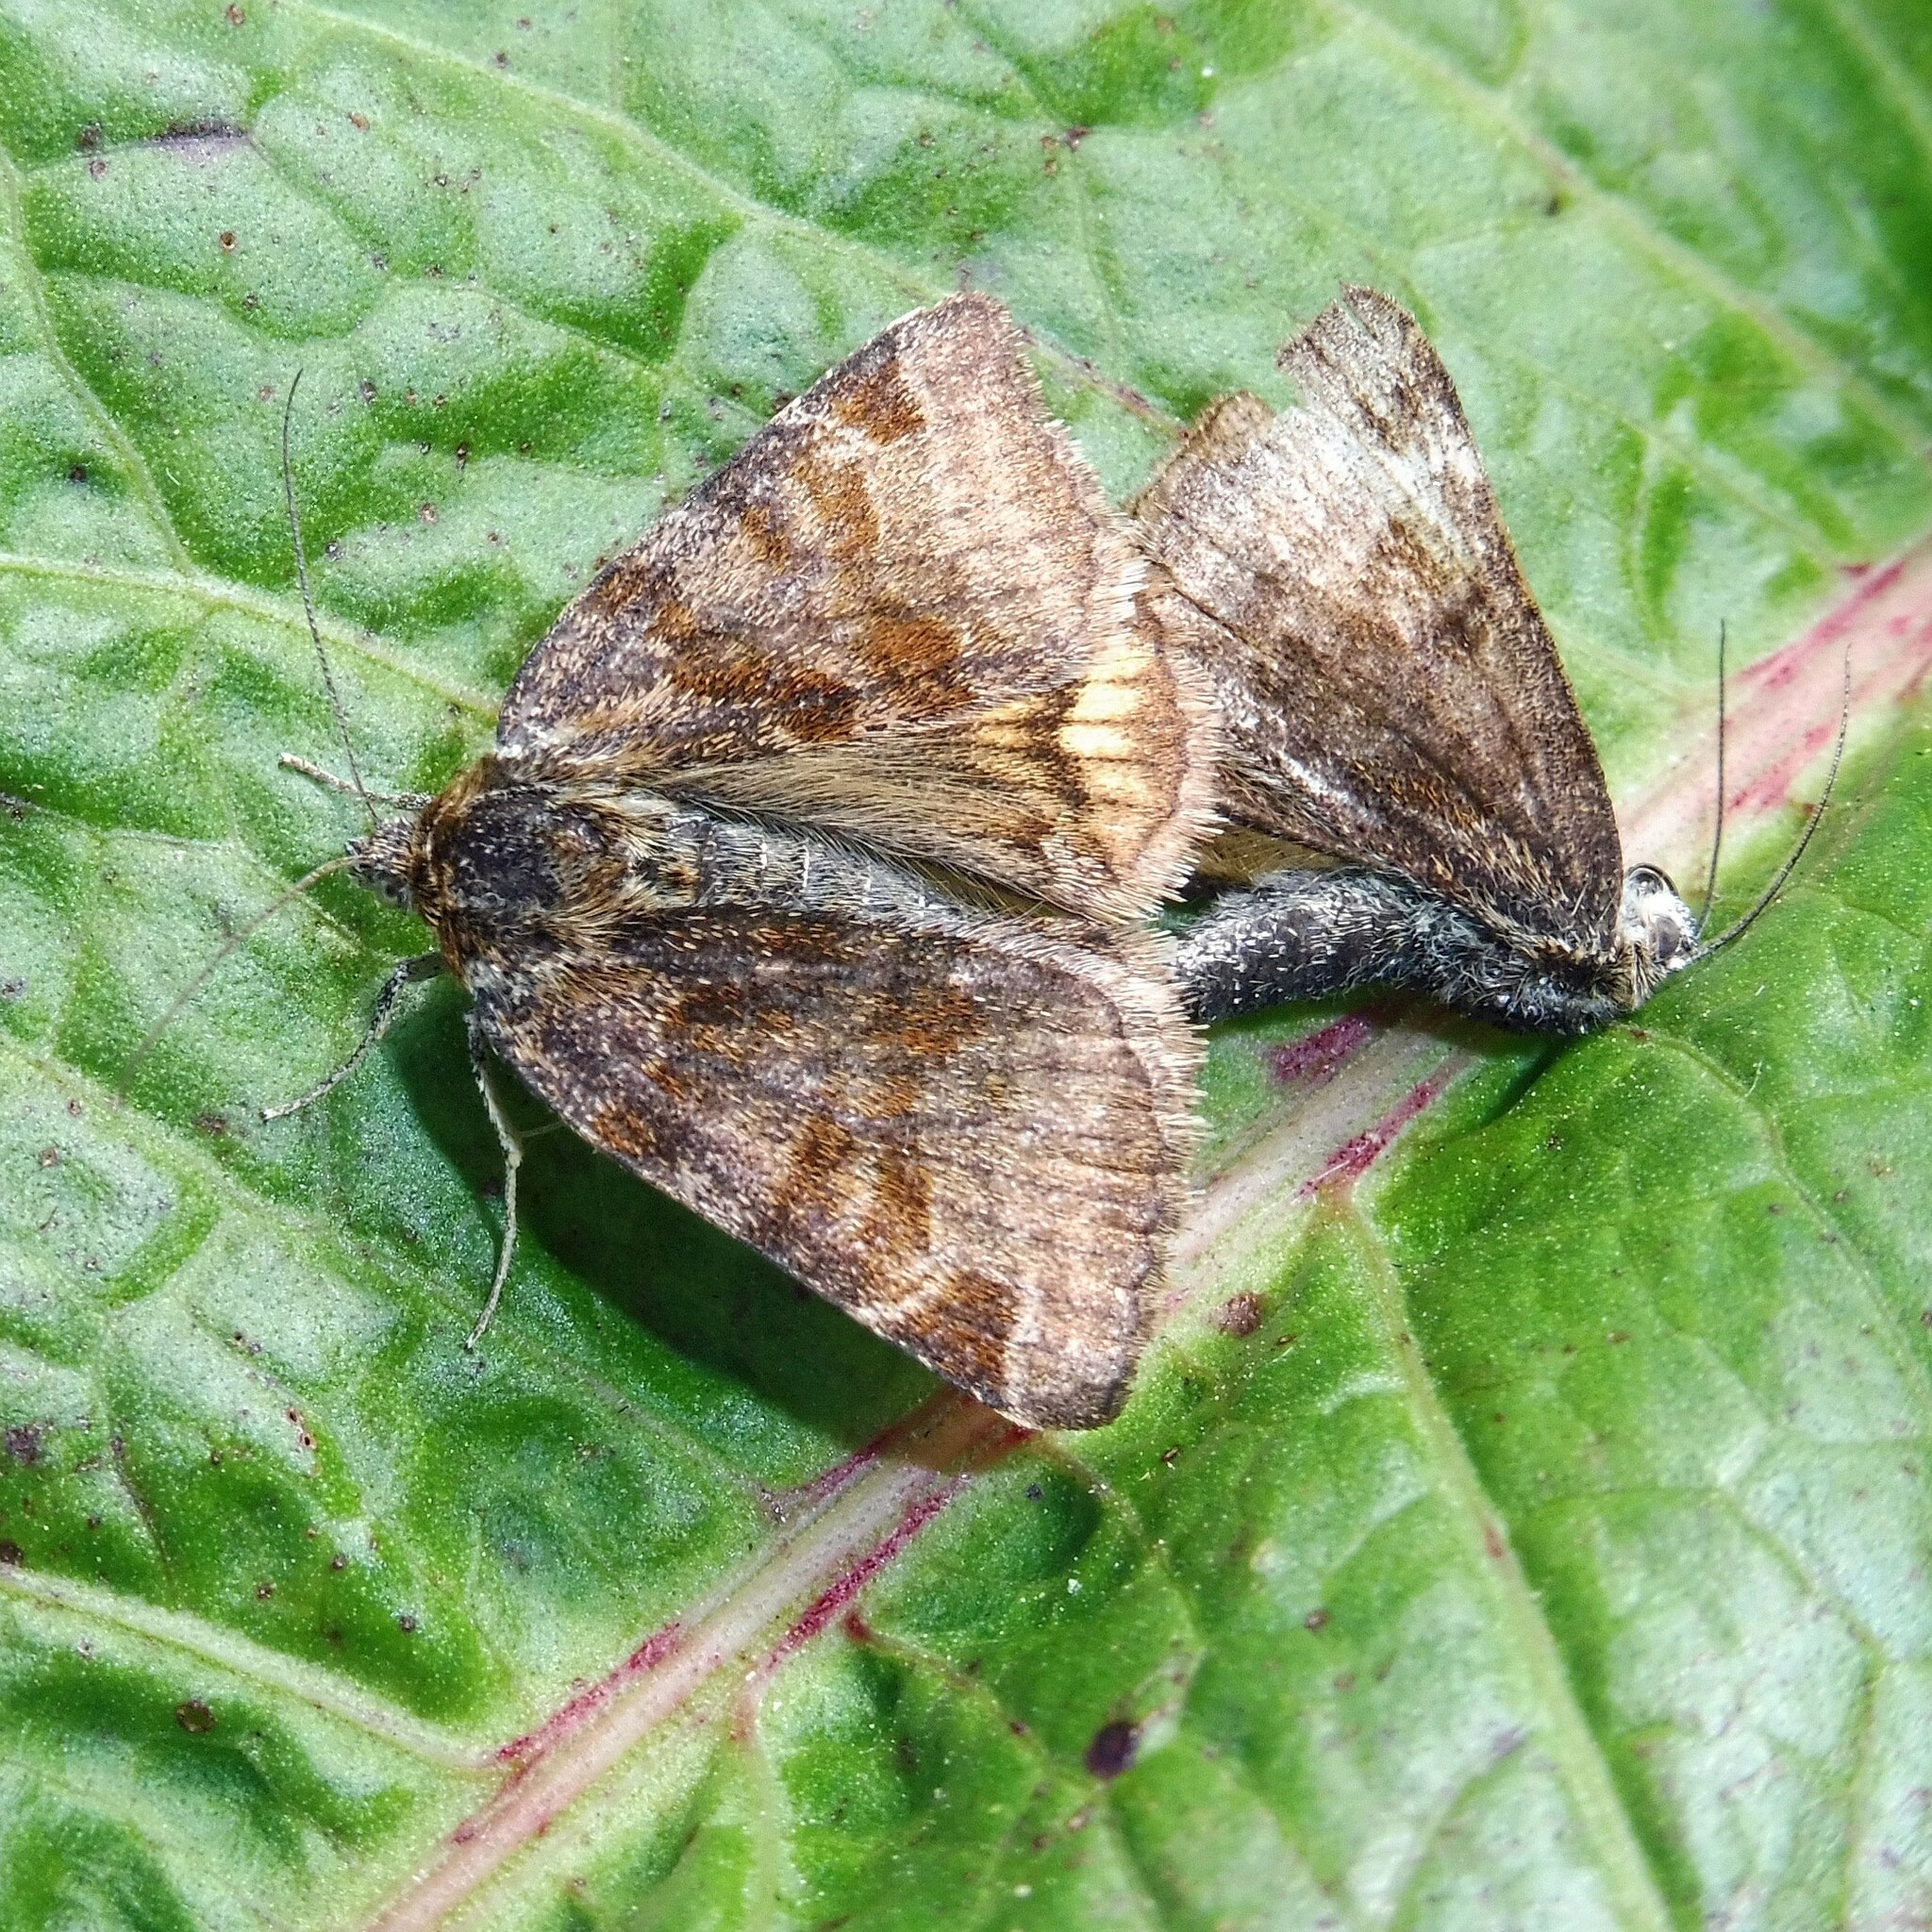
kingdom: Animalia
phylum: Arthropoda
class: Insecta
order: Lepidoptera
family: Erebidae
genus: Euclidia
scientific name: Euclidia glyphica
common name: Burnet companion
